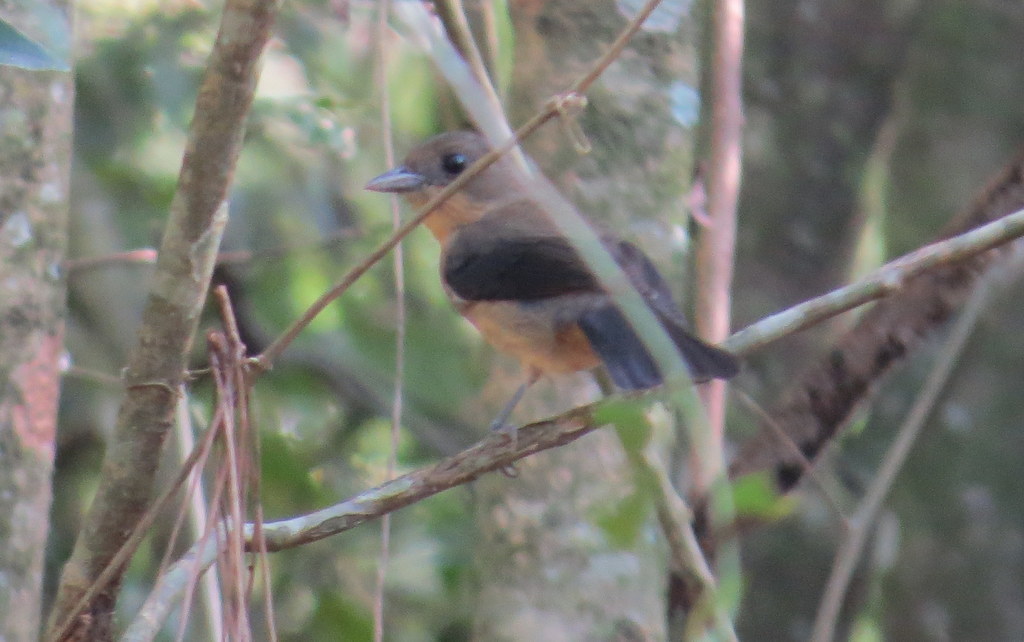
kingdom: Animalia
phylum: Chordata
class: Aves
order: Passeriformes
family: Thraupidae
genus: Trichothraupis
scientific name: Trichothraupis melanops
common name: Black-goggled tanager
